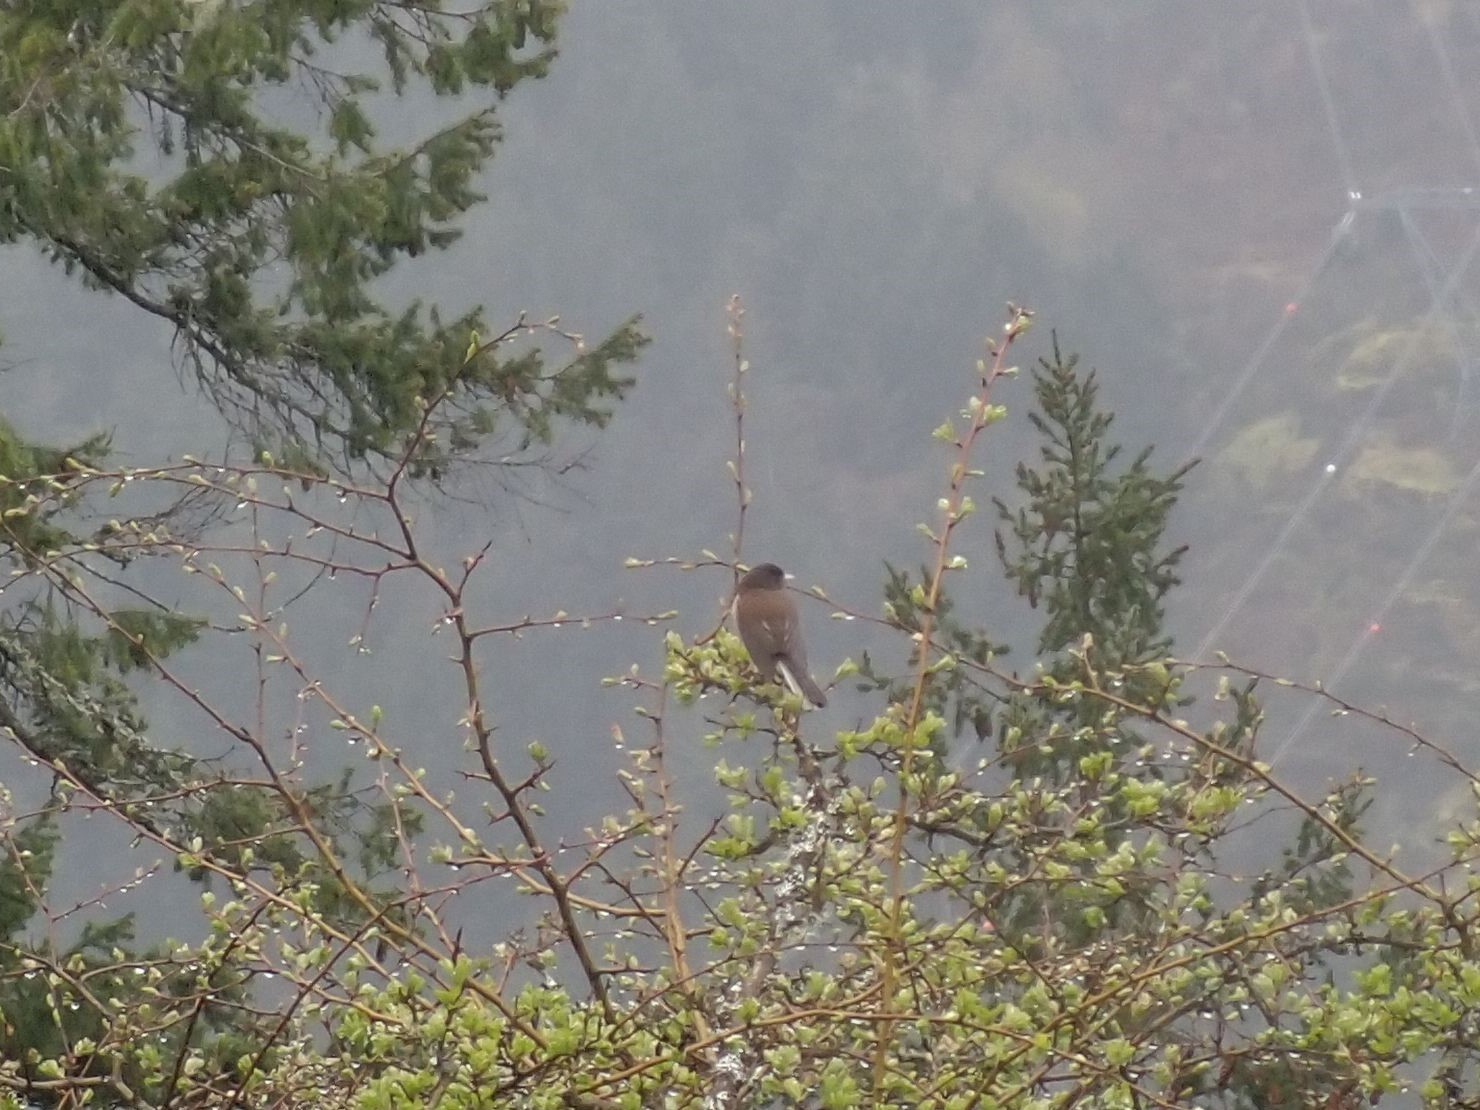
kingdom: Animalia
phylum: Chordata
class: Aves
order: Passeriformes
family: Passerellidae
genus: Junco
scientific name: Junco hyemalis
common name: Dark-eyed junco
